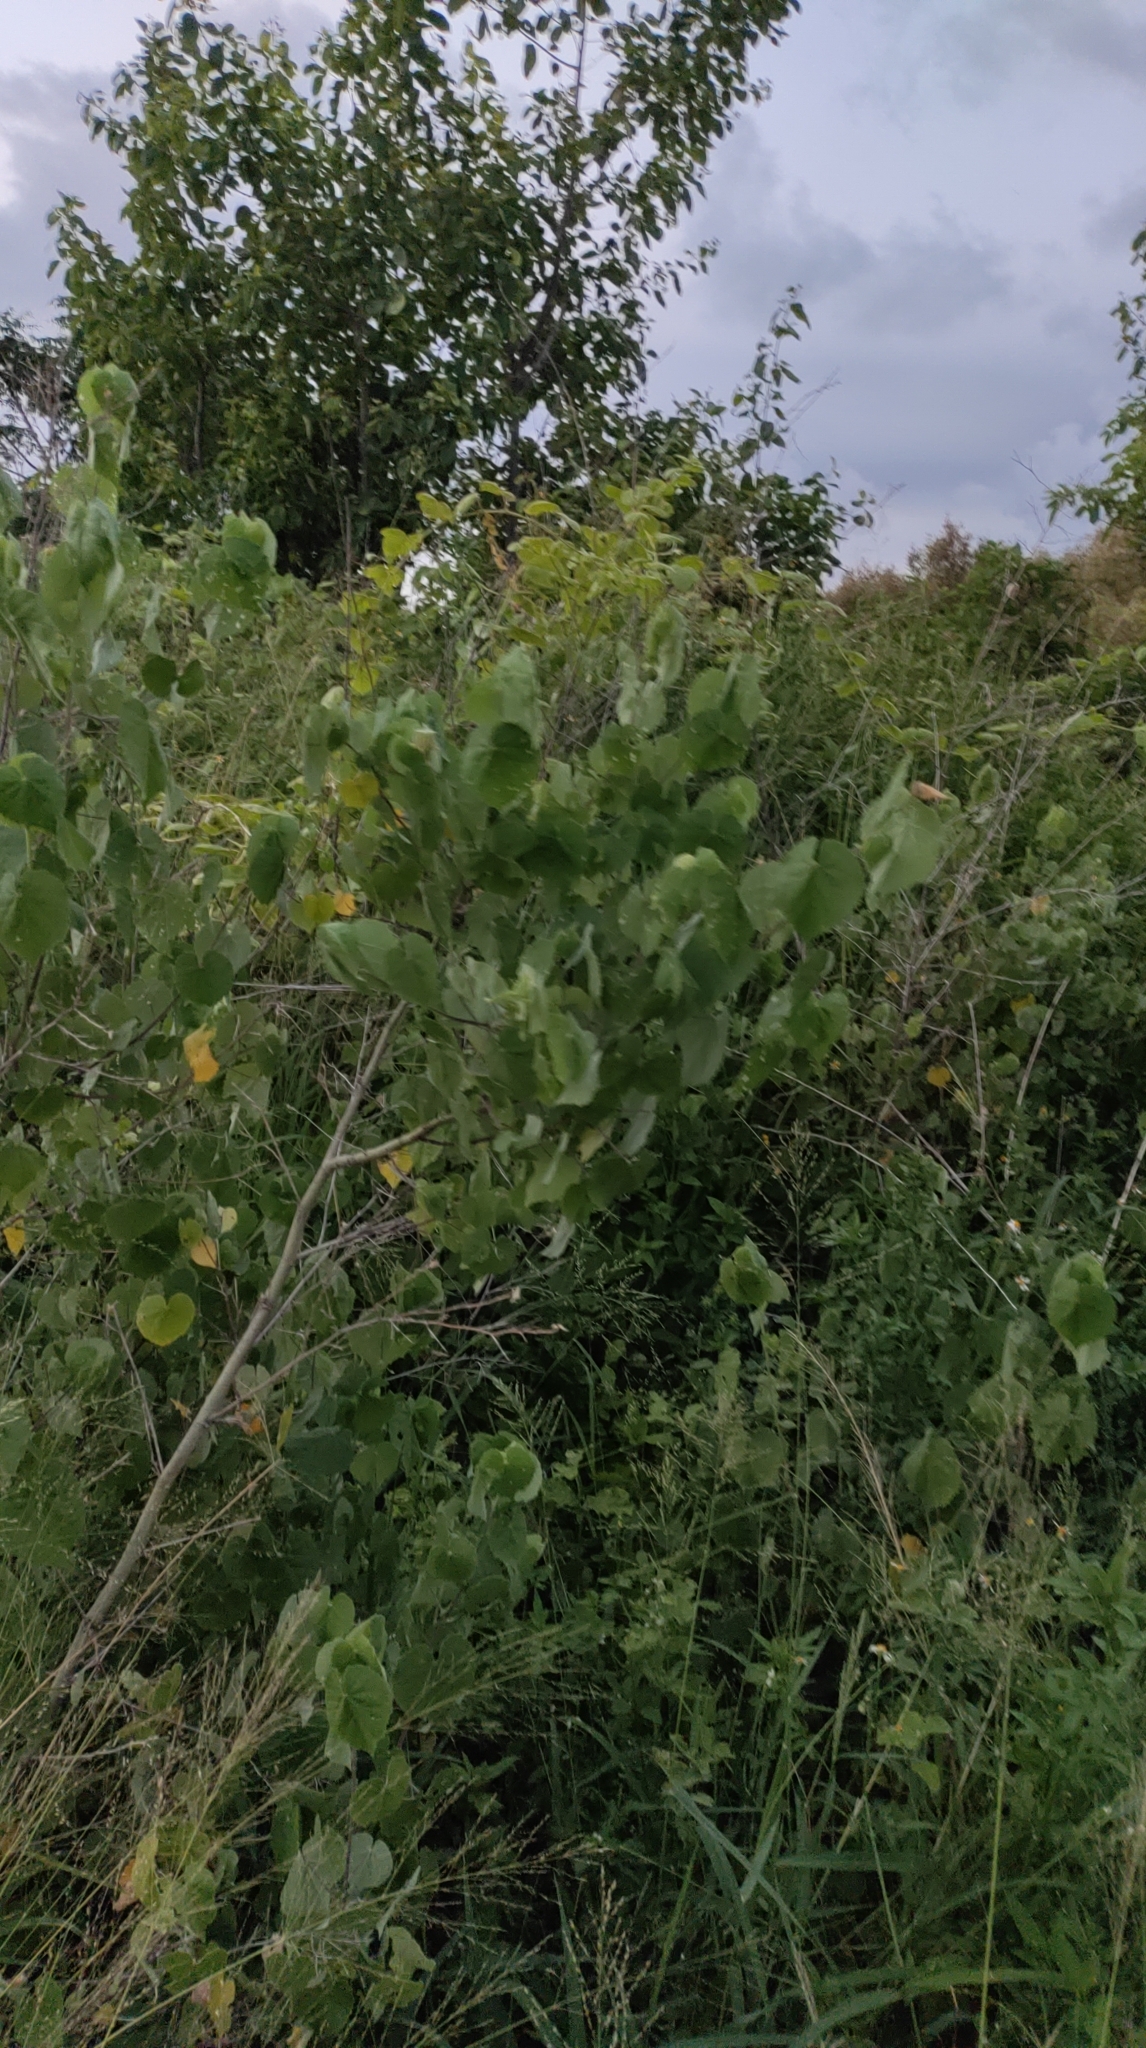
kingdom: Plantae
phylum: Tracheophyta
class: Magnoliopsida
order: Malvales
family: Malvaceae
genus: Abutilon
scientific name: Abutilon grandifolium
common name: Hairy abutilon
